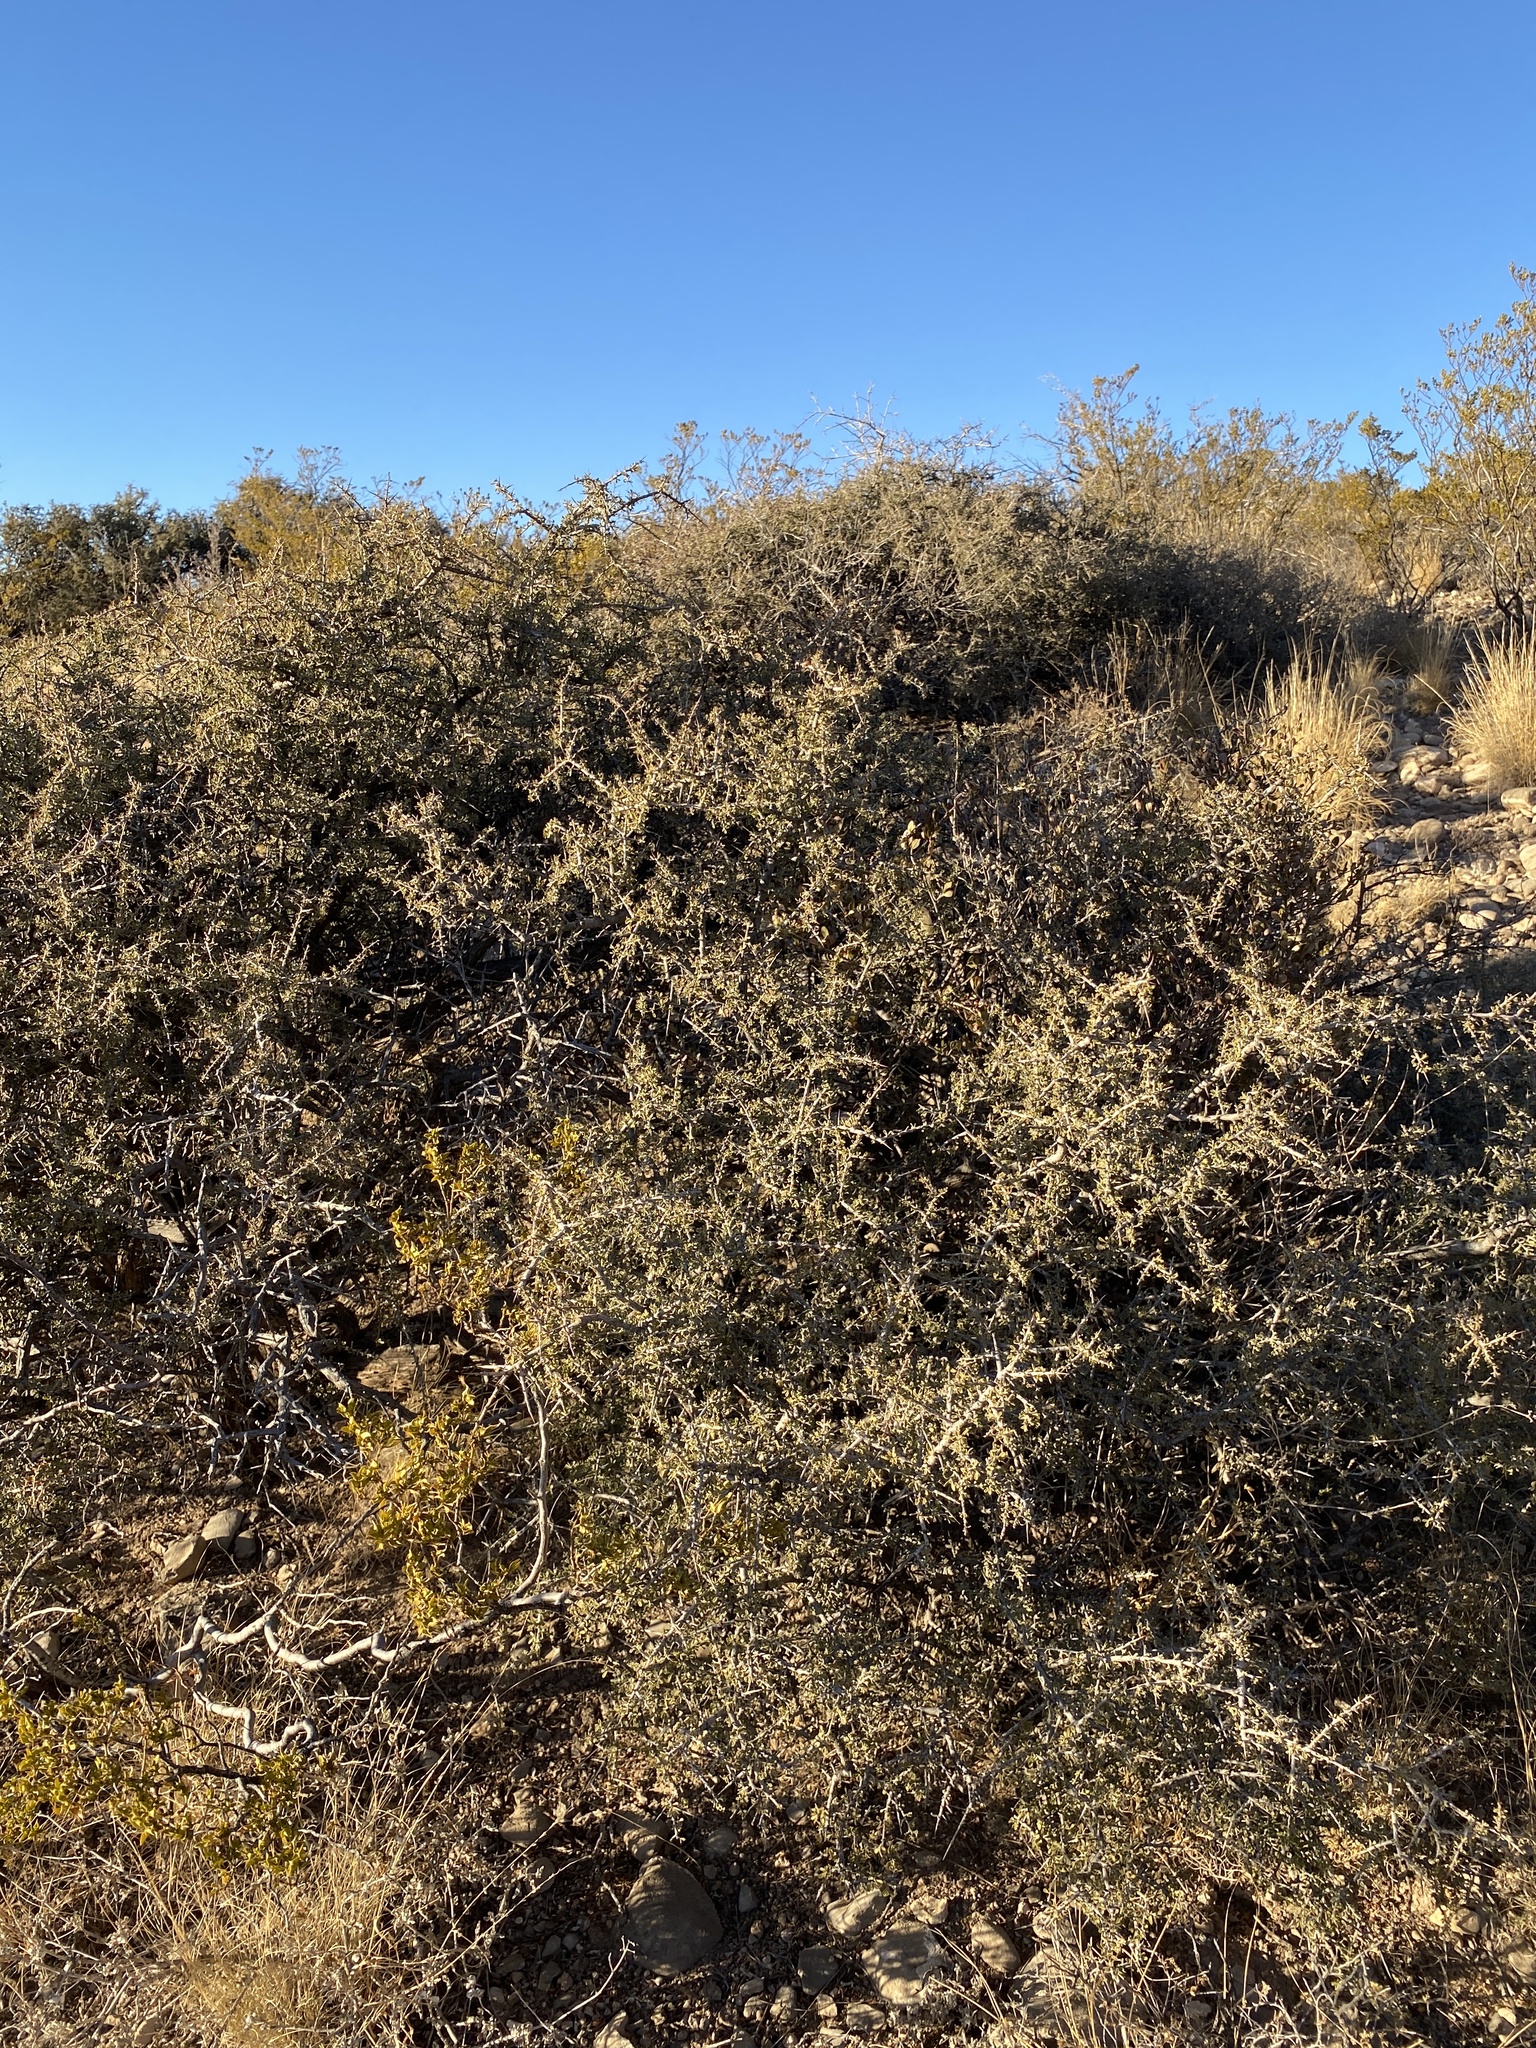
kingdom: Plantae
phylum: Tracheophyta
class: Magnoliopsida
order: Rosales
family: Rhamnaceae
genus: Condalia
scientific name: Condalia warnockii
